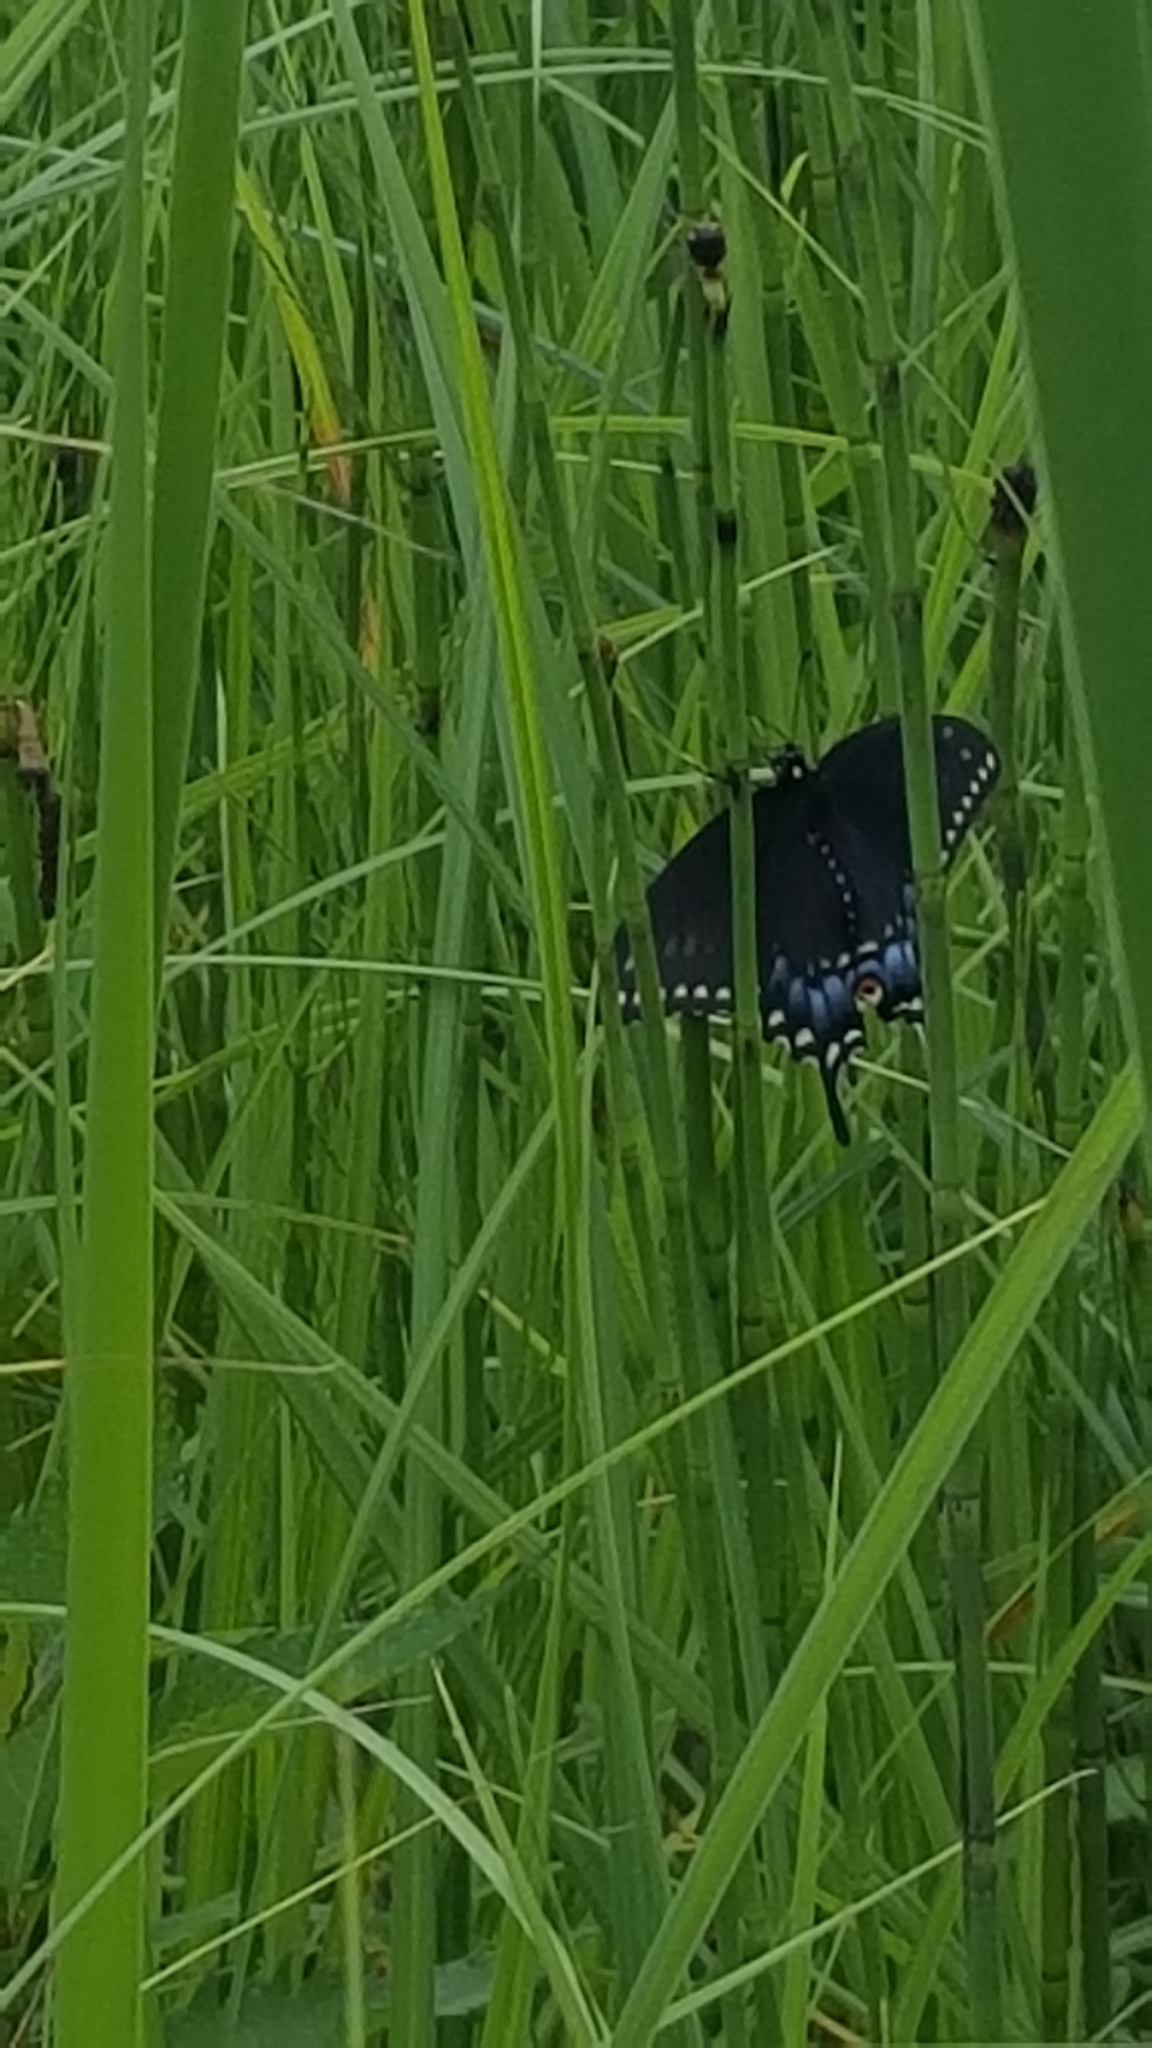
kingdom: Animalia
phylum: Arthropoda
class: Insecta
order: Lepidoptera
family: Papilionidae
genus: Papilio
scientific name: Papilio polyxenes
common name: Black swallowtail
